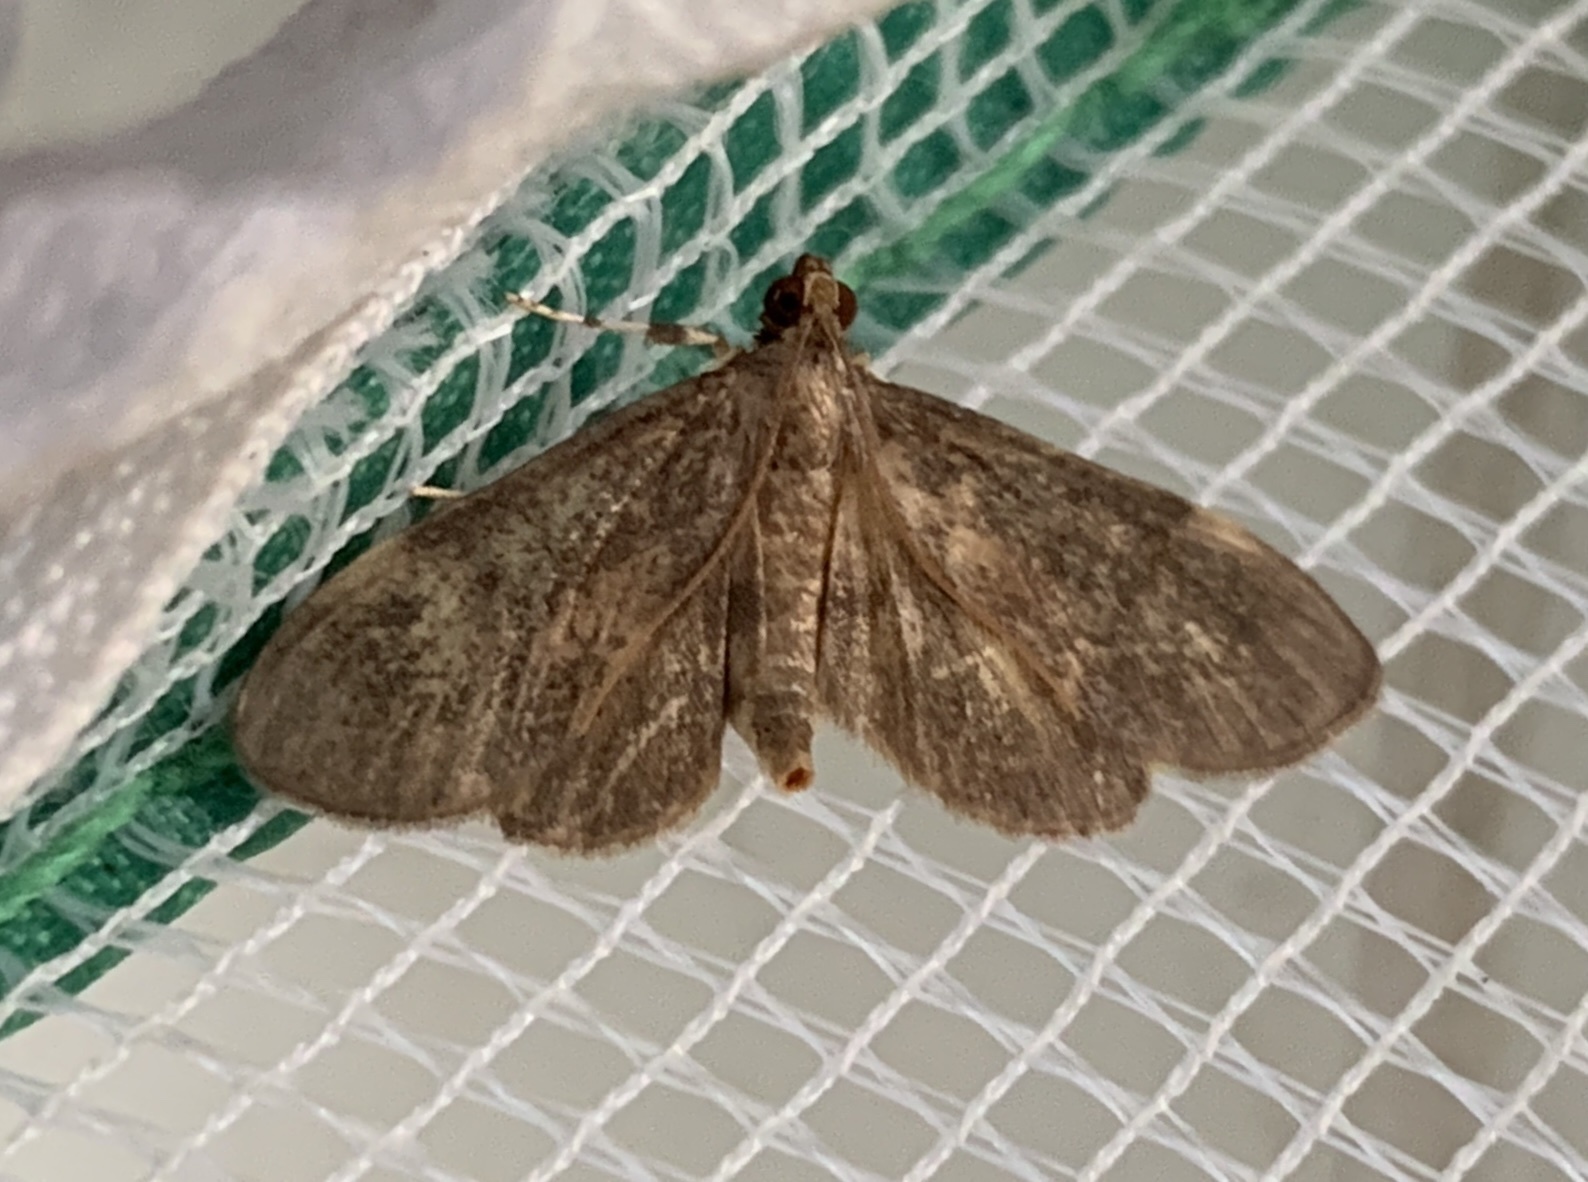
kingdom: Animalia
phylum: Arthropoda
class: Insecta
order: Lepidoptera
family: Crambidae
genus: Lygropia
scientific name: Lygropia fusalis
